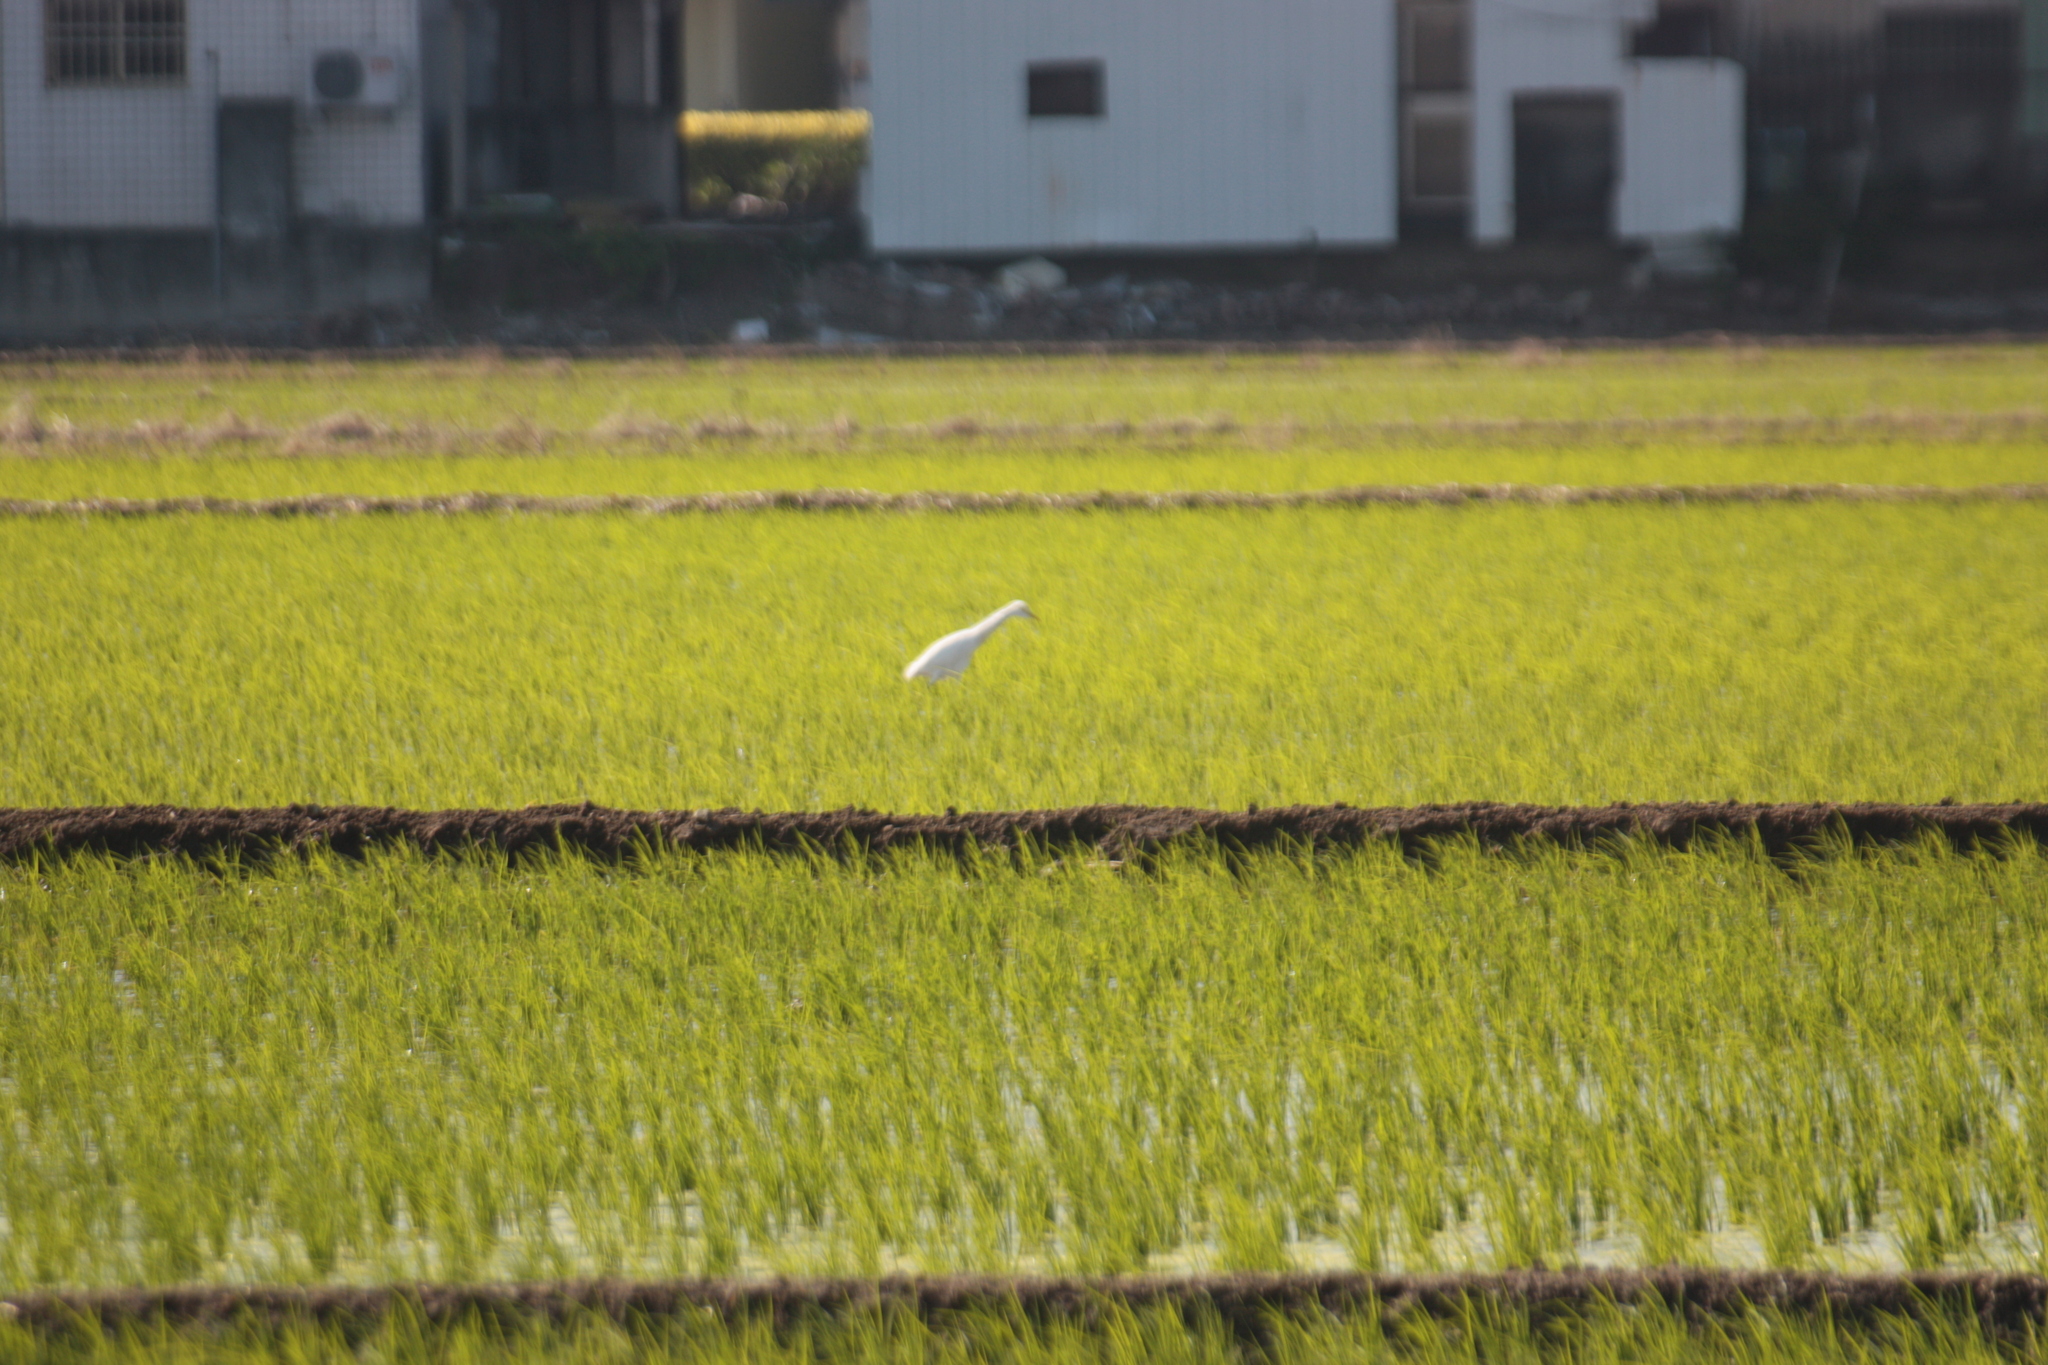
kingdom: Animalia
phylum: Chordata
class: Aves
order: Pelecaniformes
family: Ardeidae
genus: Bubulcus
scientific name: Bubulcus coromandus
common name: Eastern cattle egret
